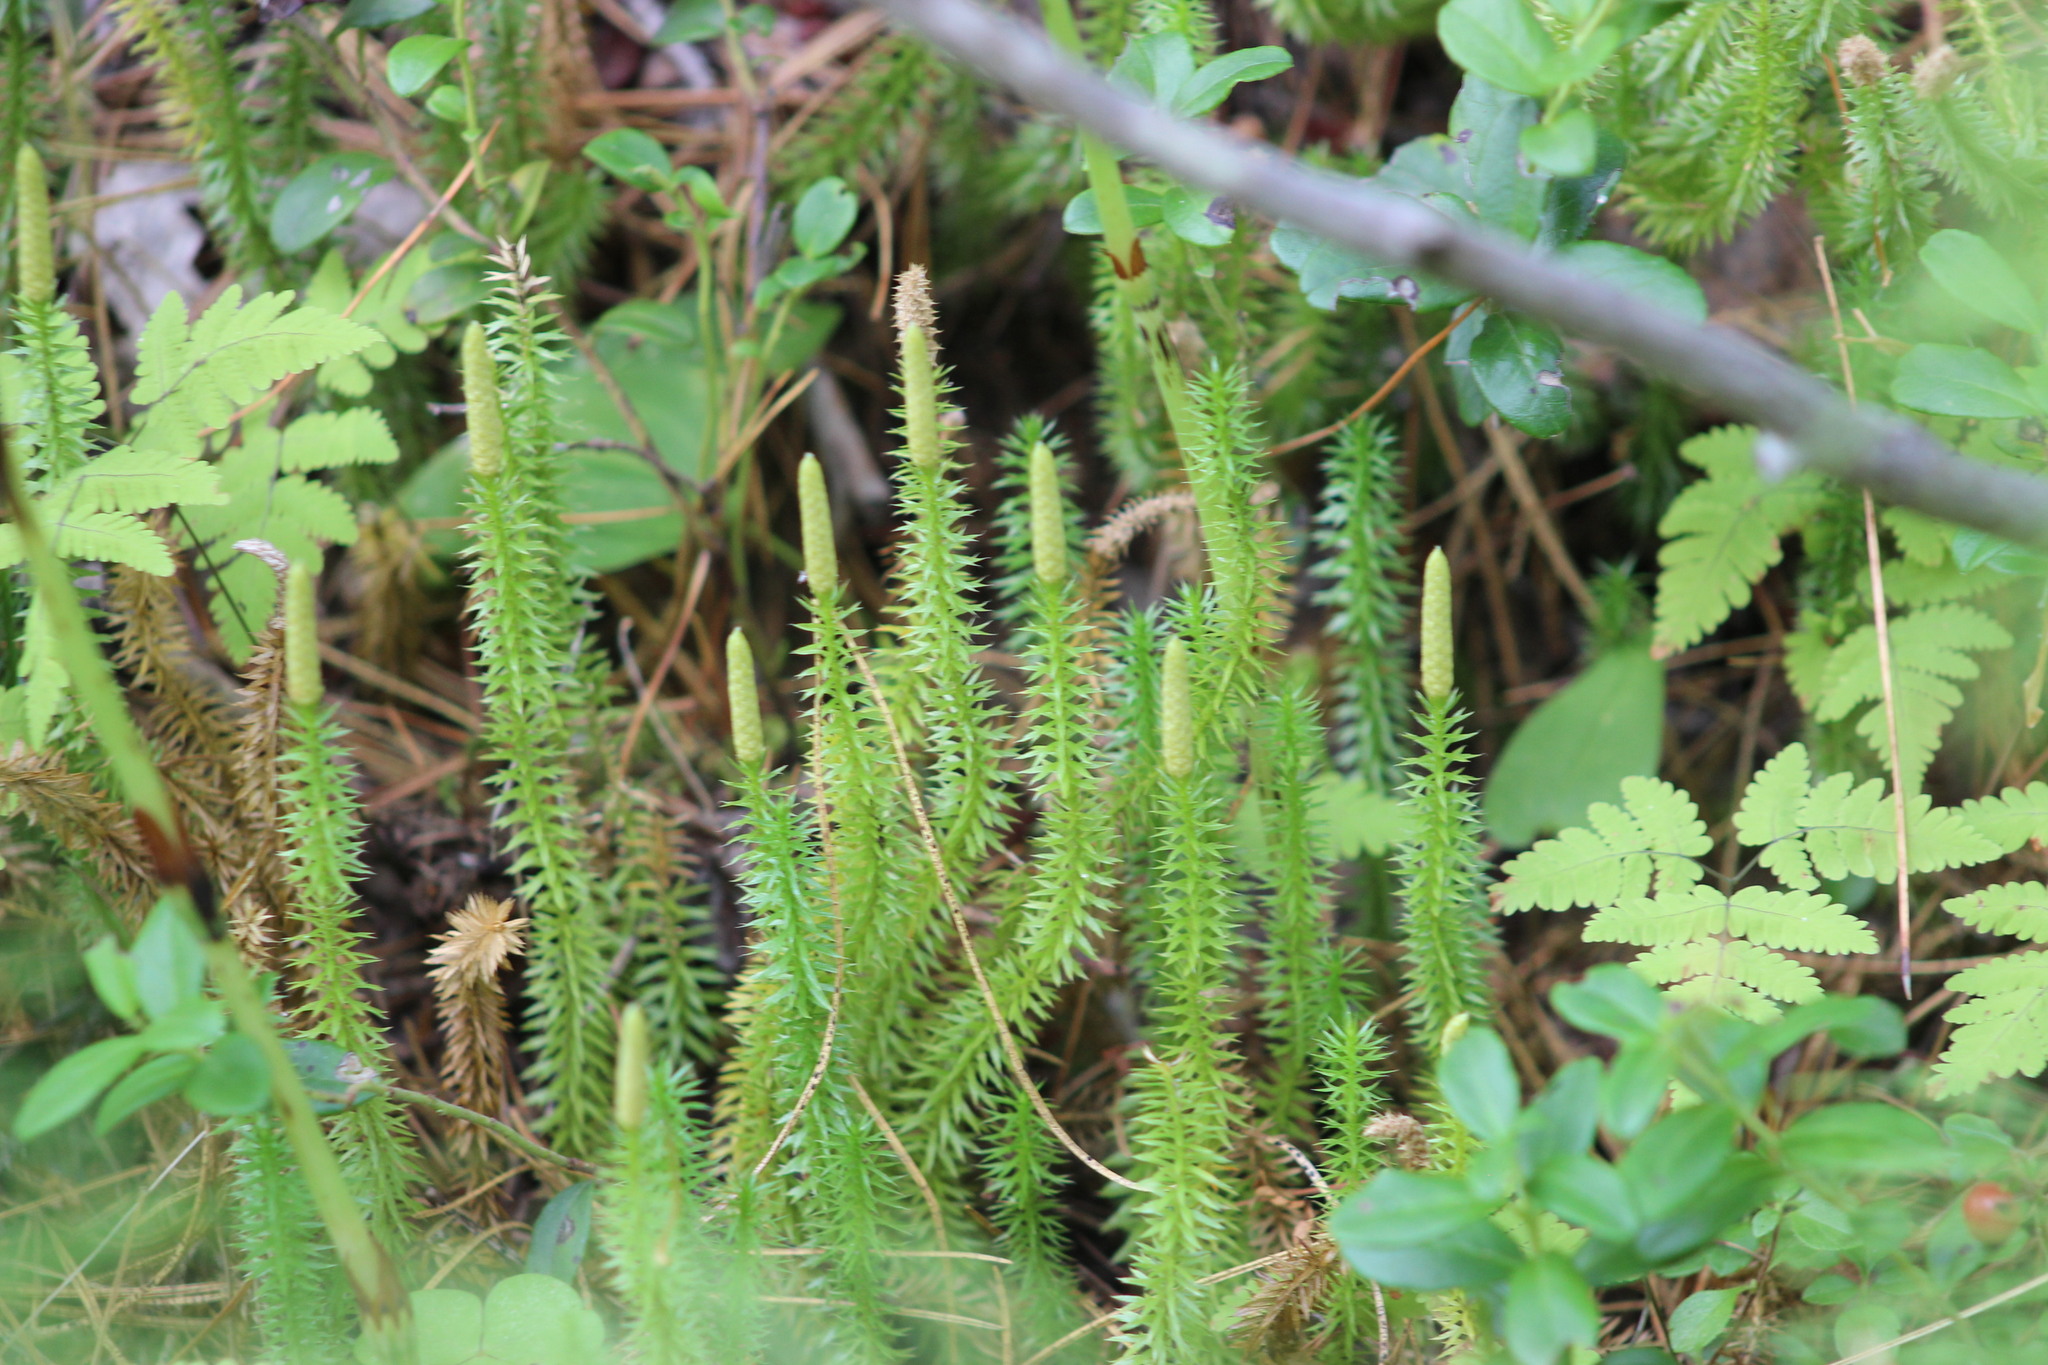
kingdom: Plantae
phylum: Tracheophyta
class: Lycopodiopsida
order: Lycopodiales
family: Lycopodiaceae
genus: Spinulum
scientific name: Spinulum annotinum
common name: Interrupted club-moss
